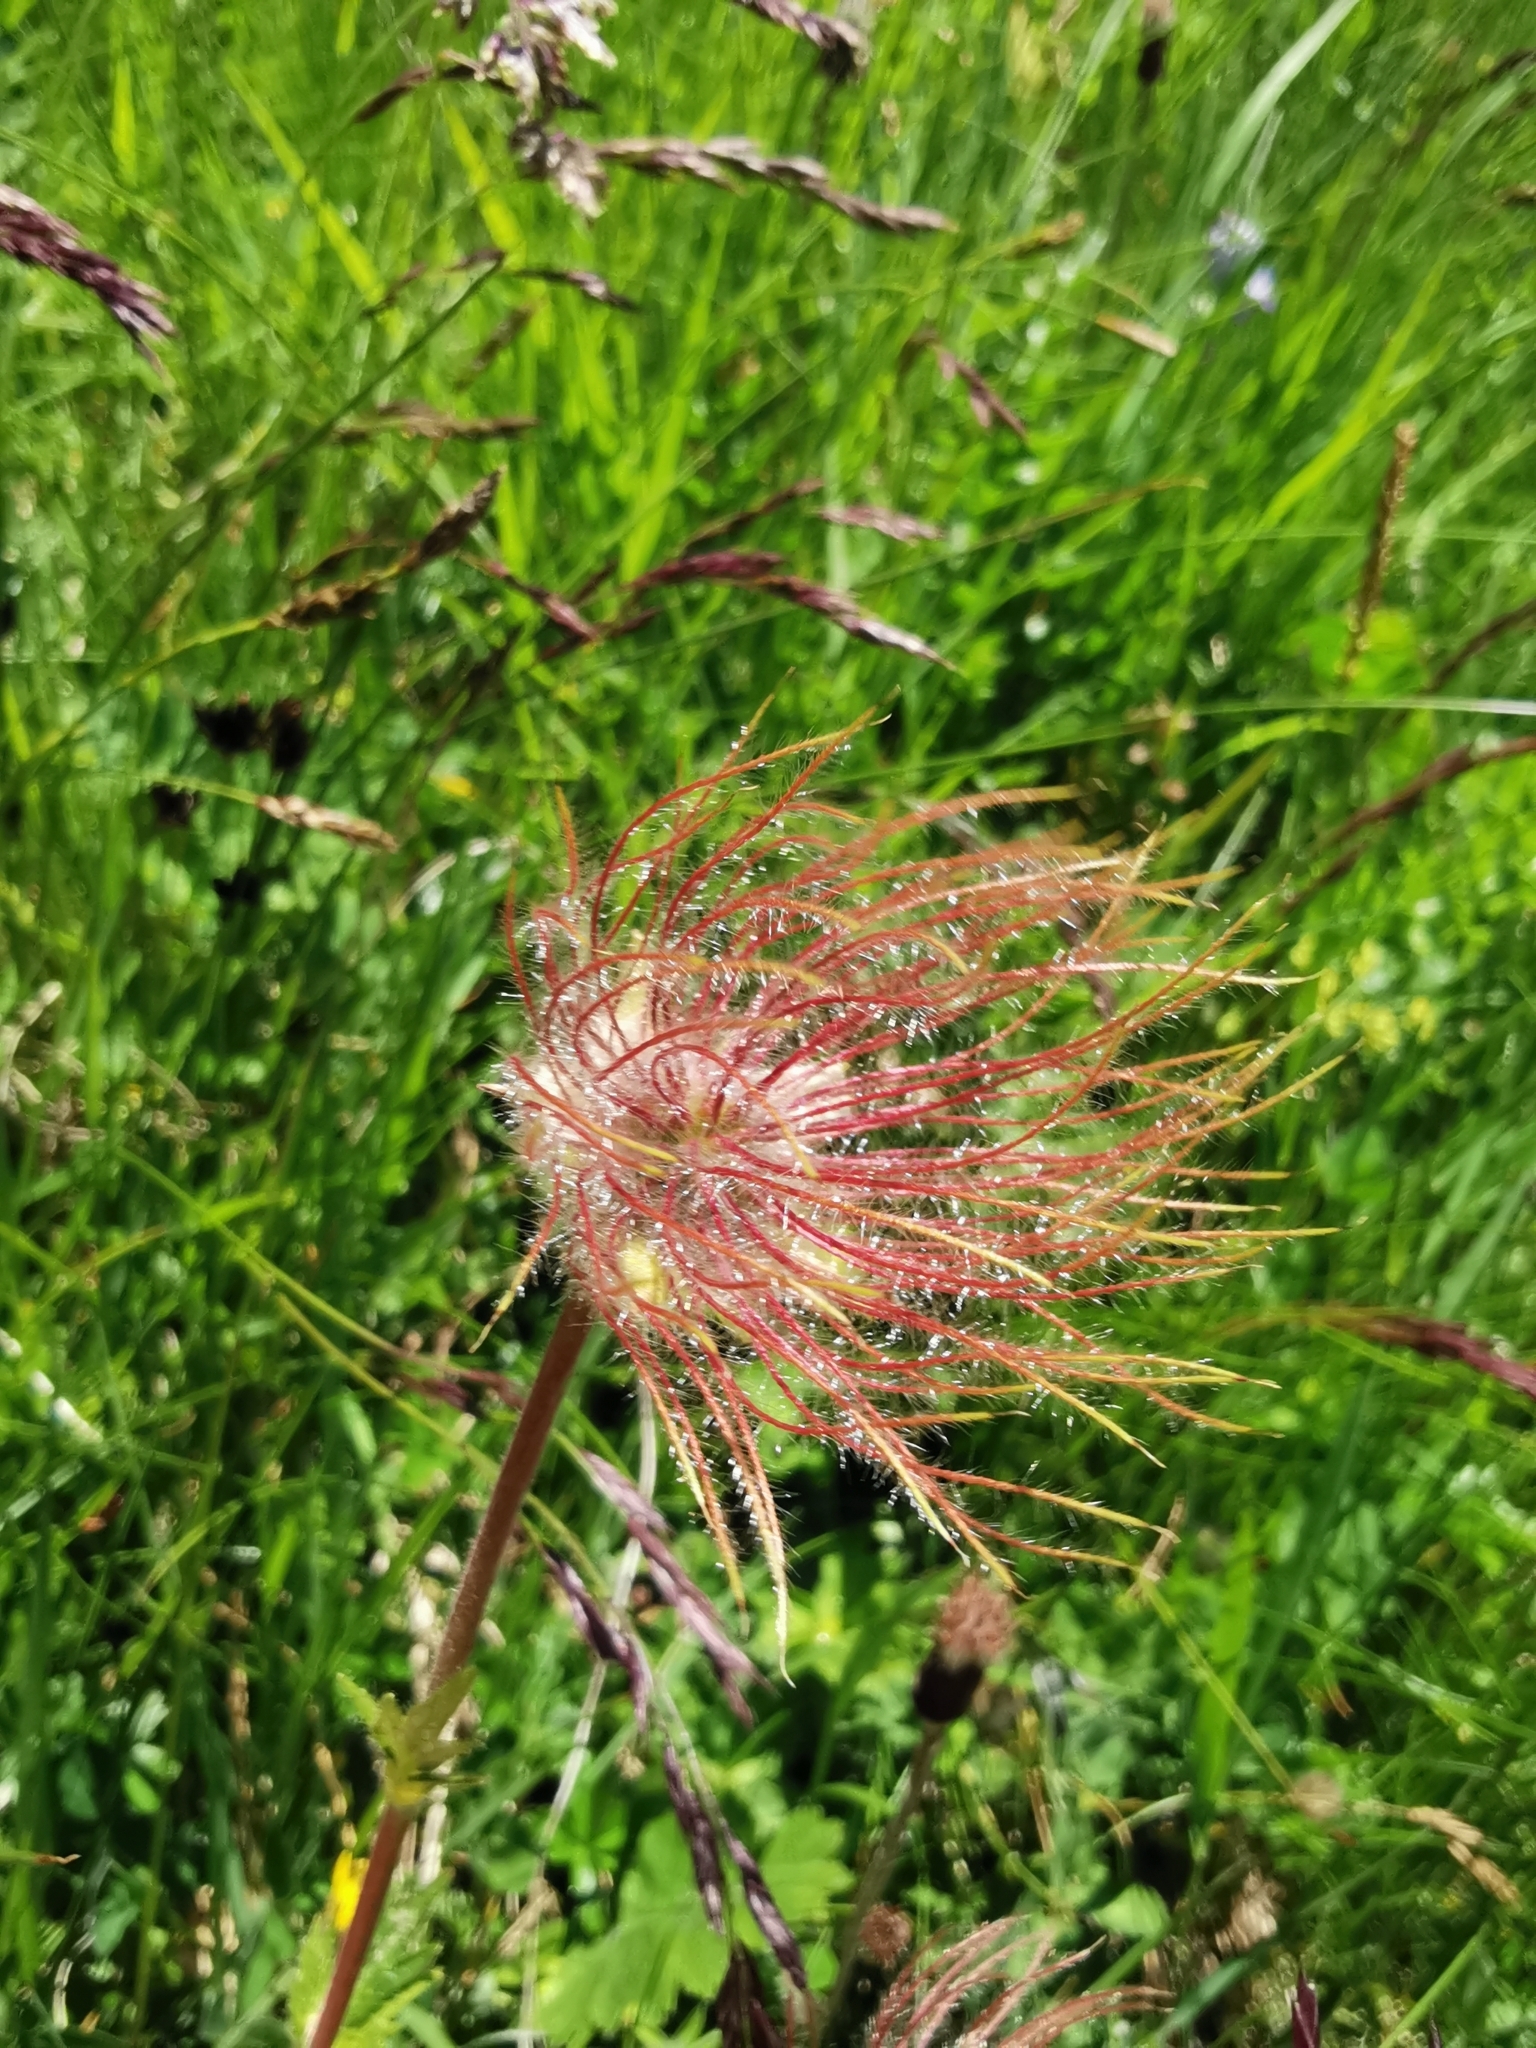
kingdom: Plantae
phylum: Tracheophyta
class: Magnoliopsida
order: Rosales
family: Rosaceae
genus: Geum
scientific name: Geum montanum
